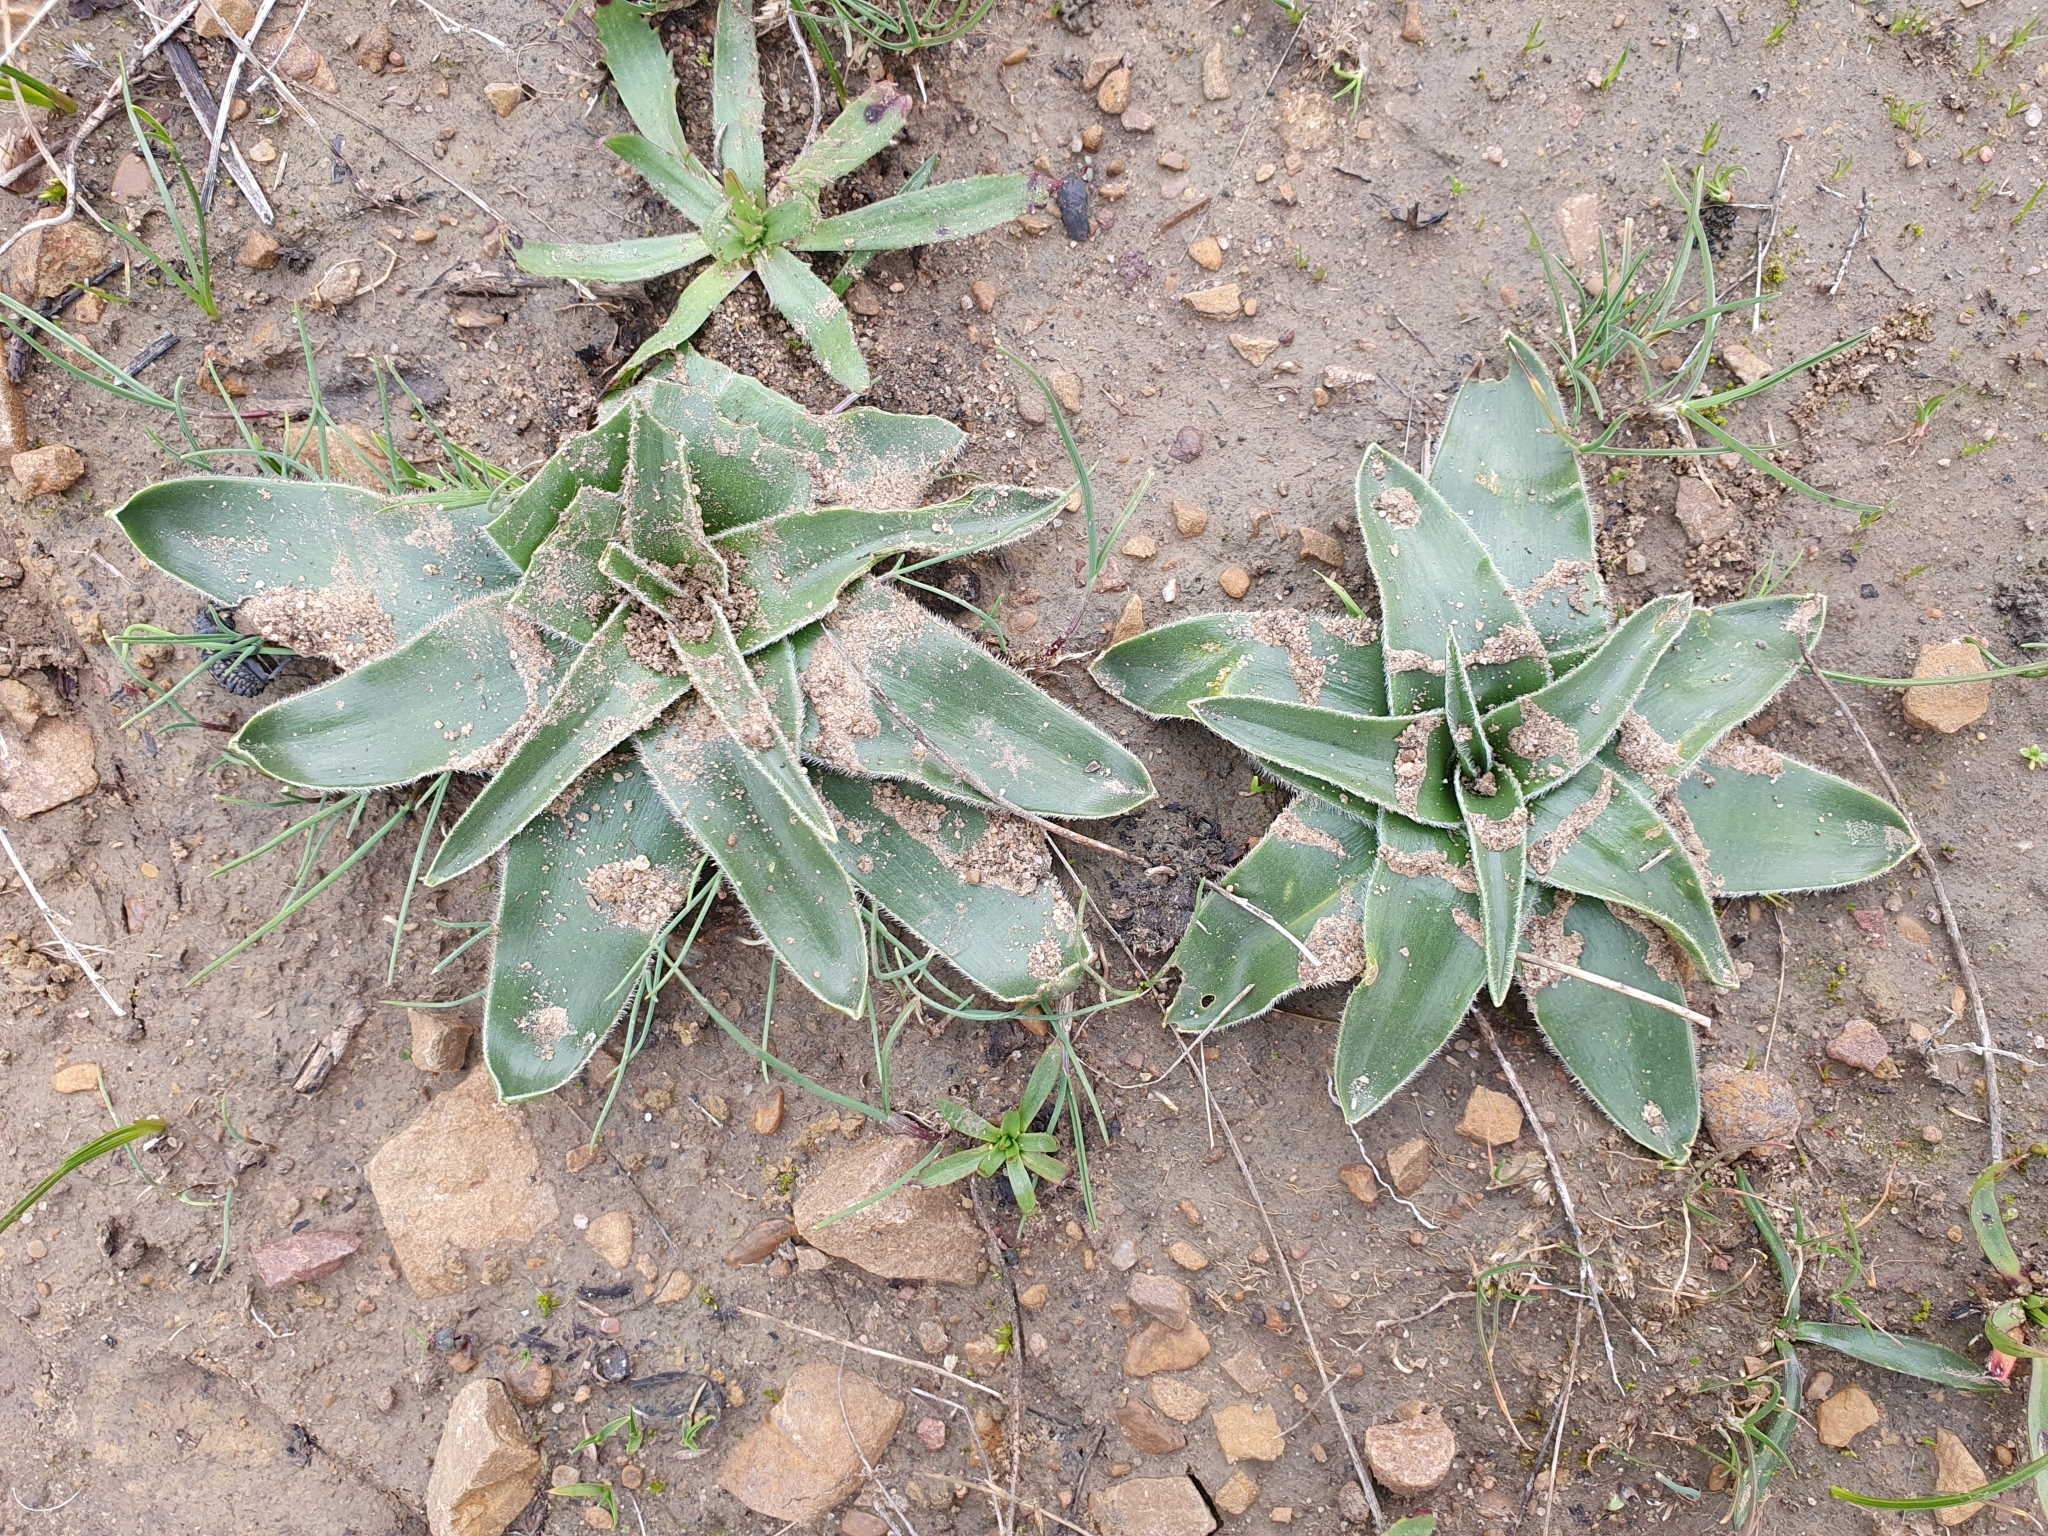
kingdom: Plantae
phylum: Tracheophyta
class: Liliopsida
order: Asparagales
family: Asparagaceae
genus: Scilla
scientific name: Scilla peruviana
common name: Portuguese squill
